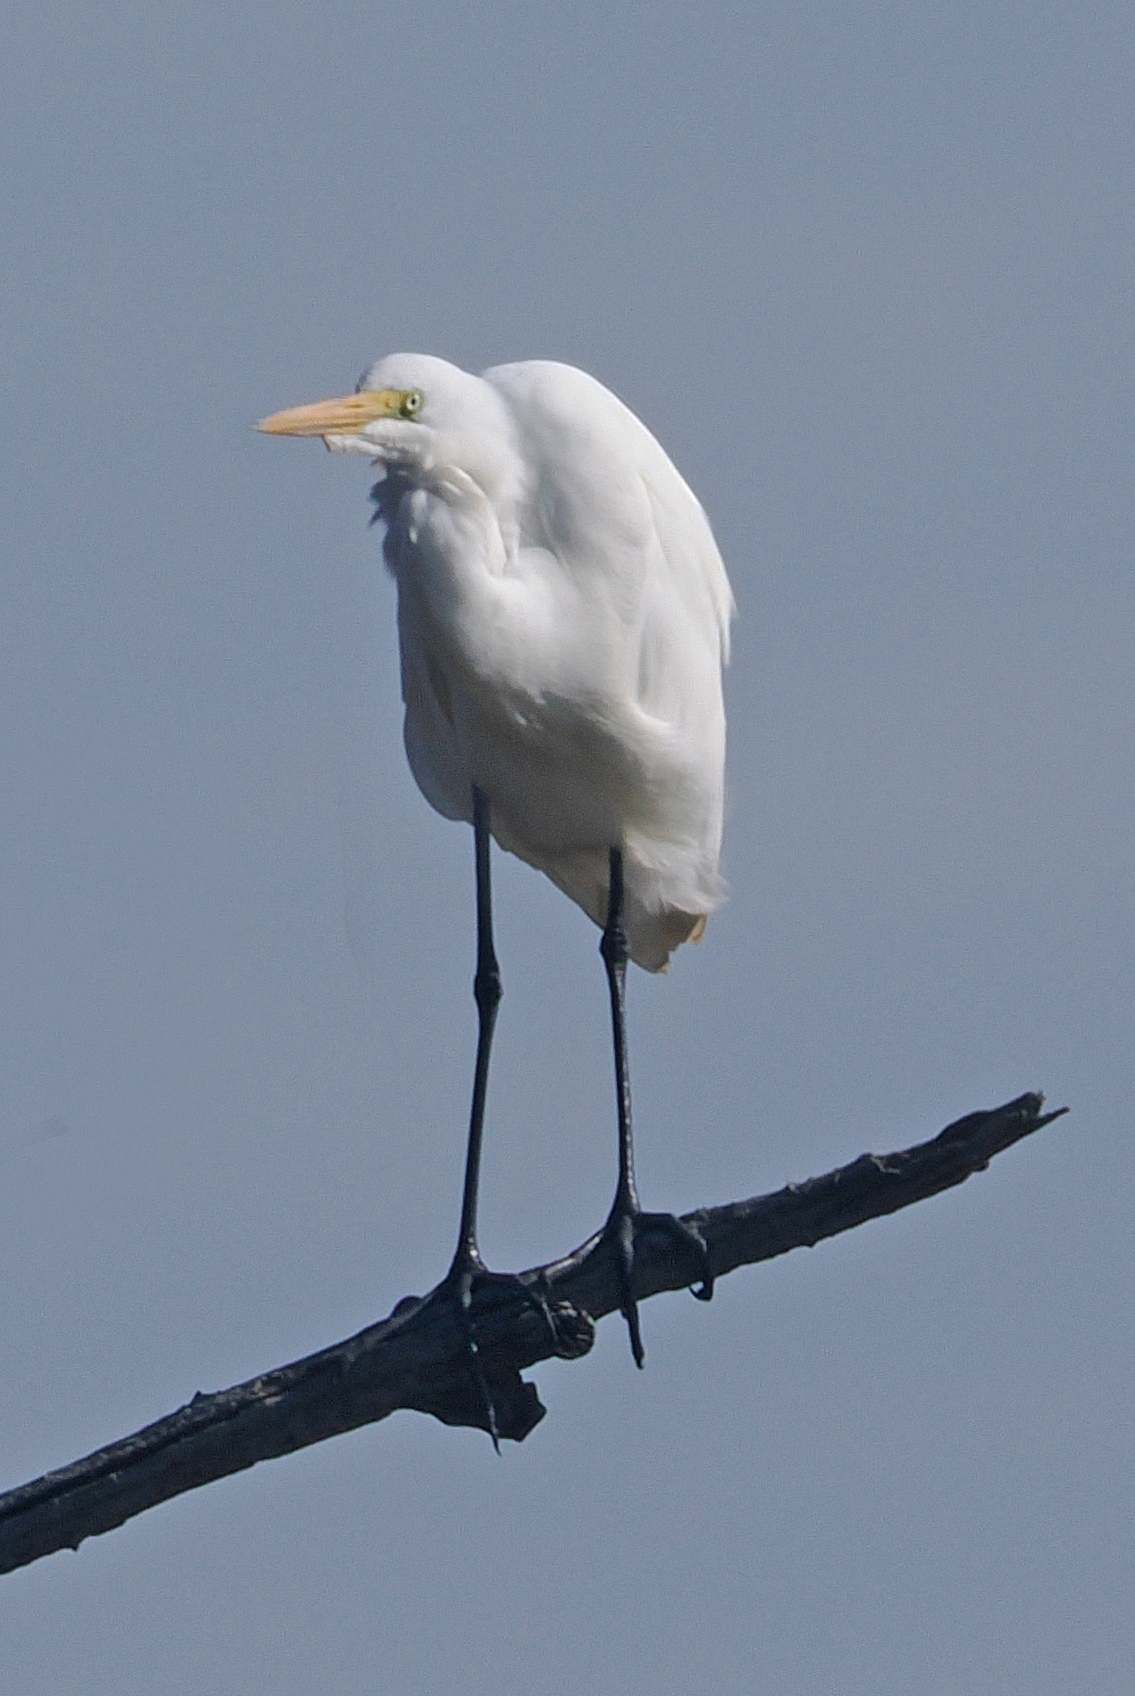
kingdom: Animalia
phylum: Chordata
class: Aves
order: Pelecaniformes
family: Ardeidae
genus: Ardea
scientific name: Ardea alba
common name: Great egret
